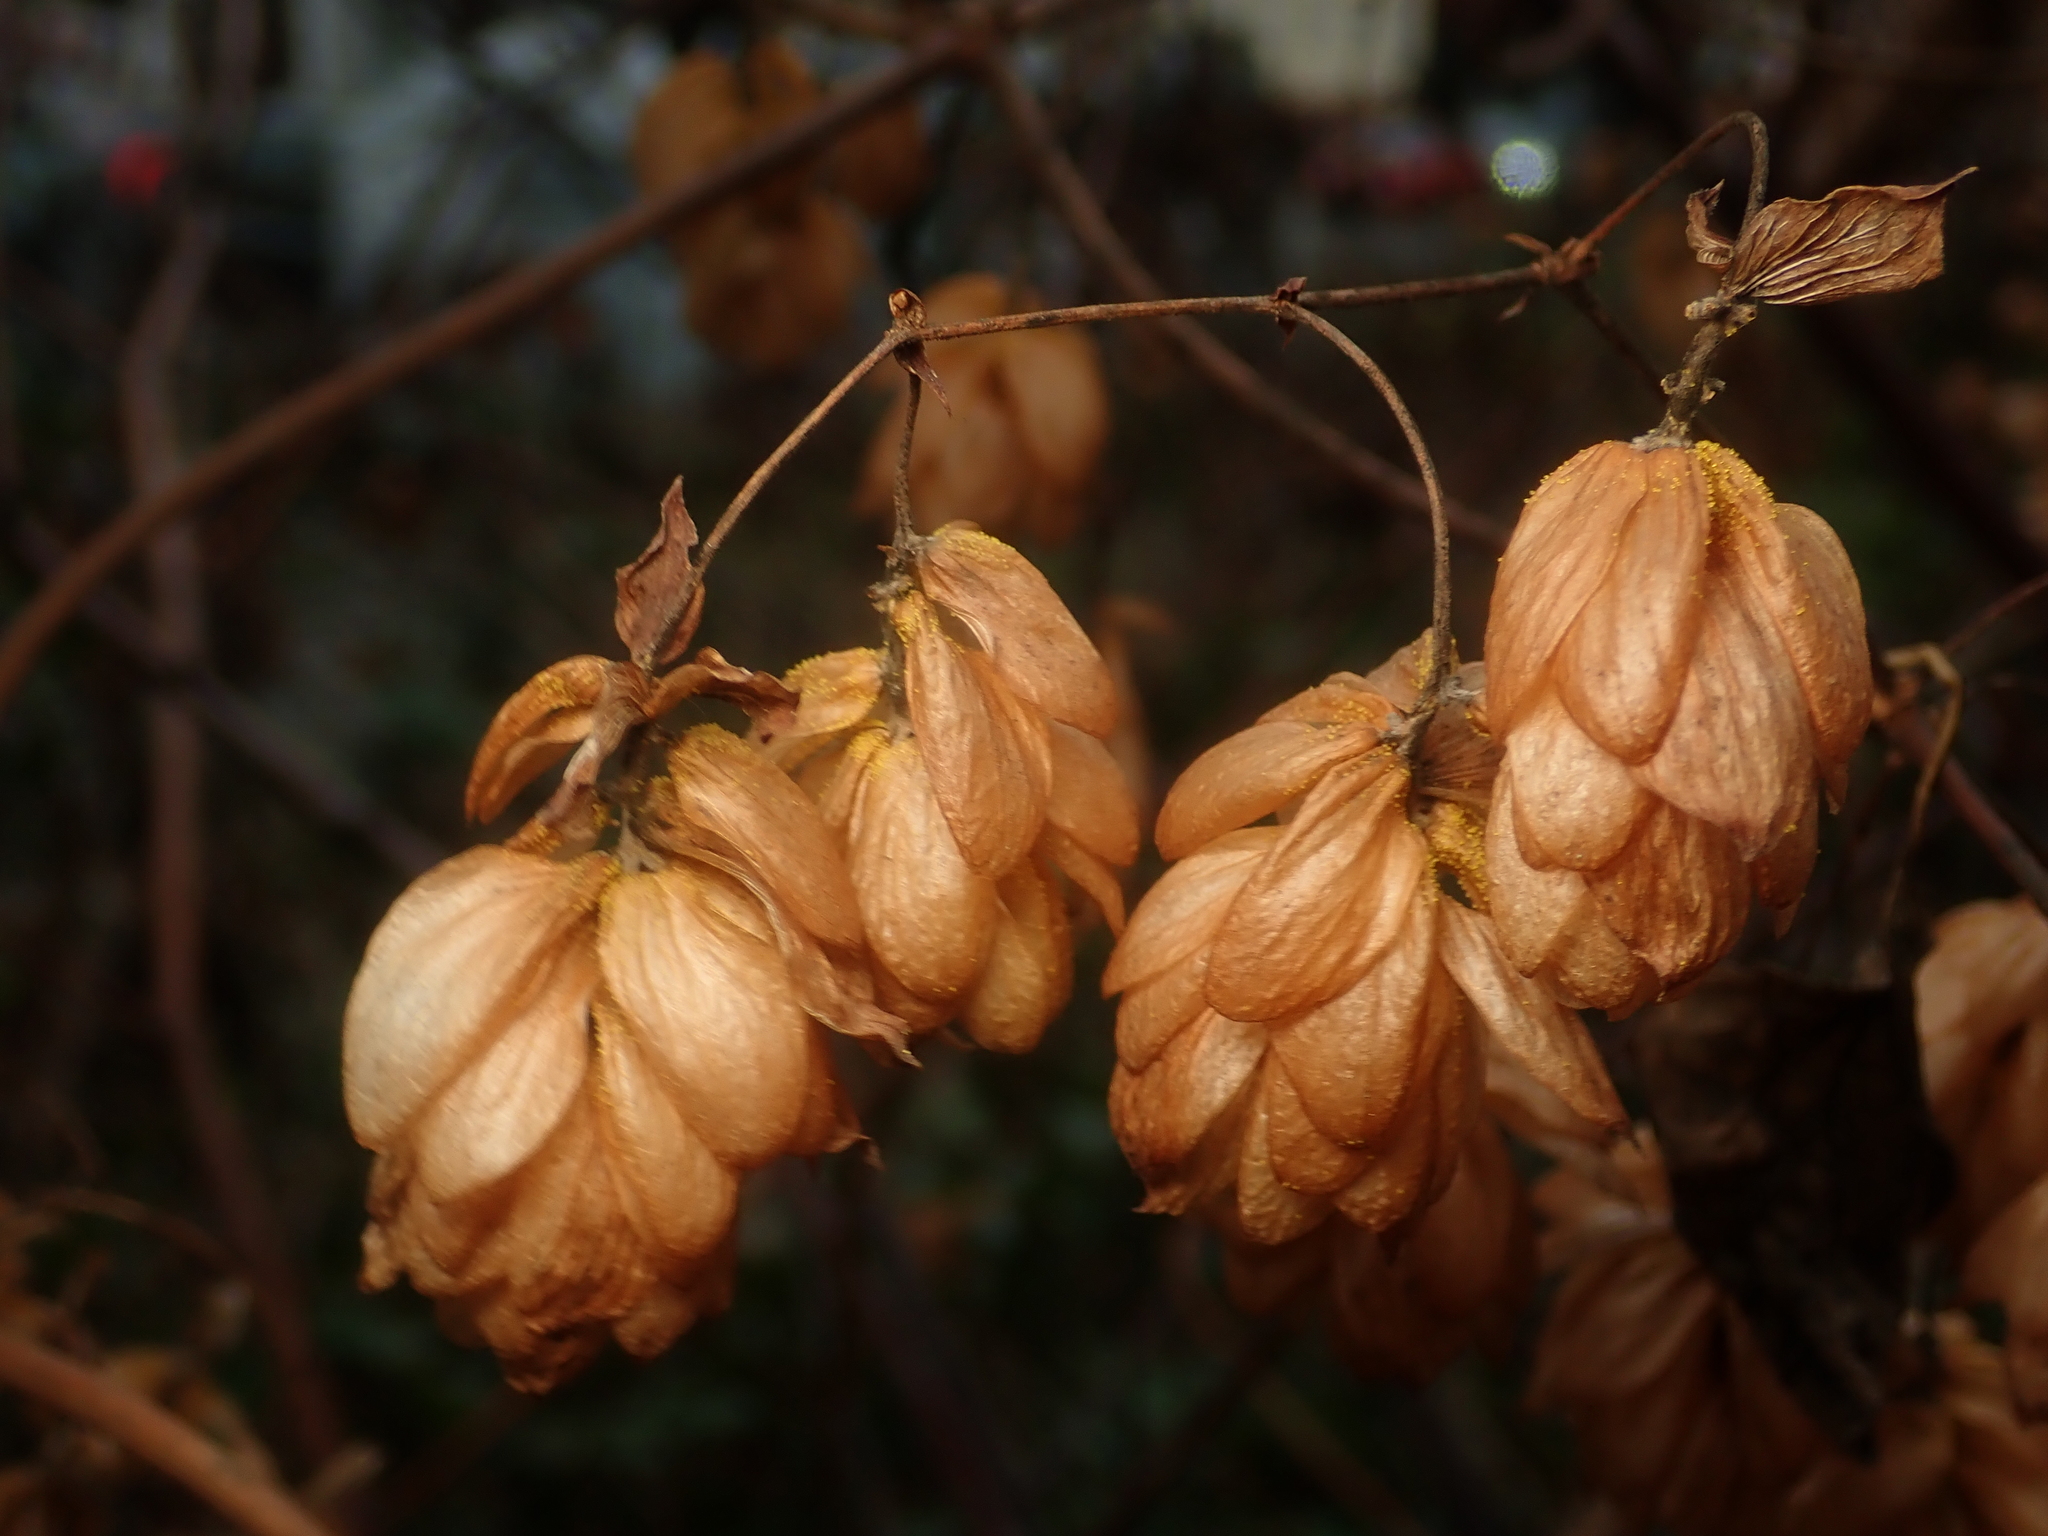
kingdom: Plantae
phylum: Tracheophyta
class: Magnoliopsida
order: Rosales
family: Cannabaceae
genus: Humulus
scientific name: Humulus lupulus
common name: Hop
